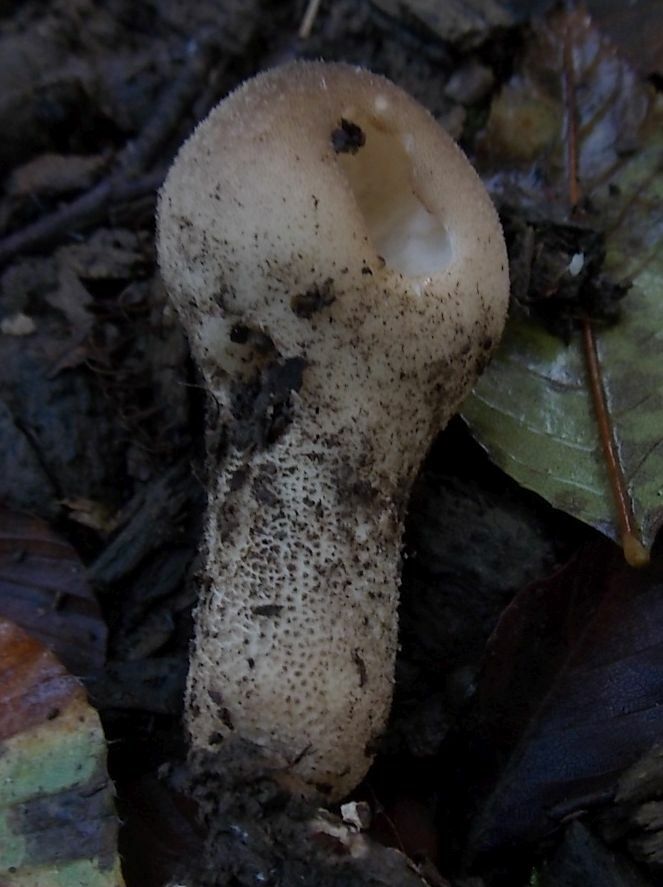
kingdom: Fungi
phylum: Basidiomycota
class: Agaricomycetes
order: Agaricales
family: Lycoperdaceae
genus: Apioperdon
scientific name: Apioperdon pyriforme
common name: Pear-shaped puffball
